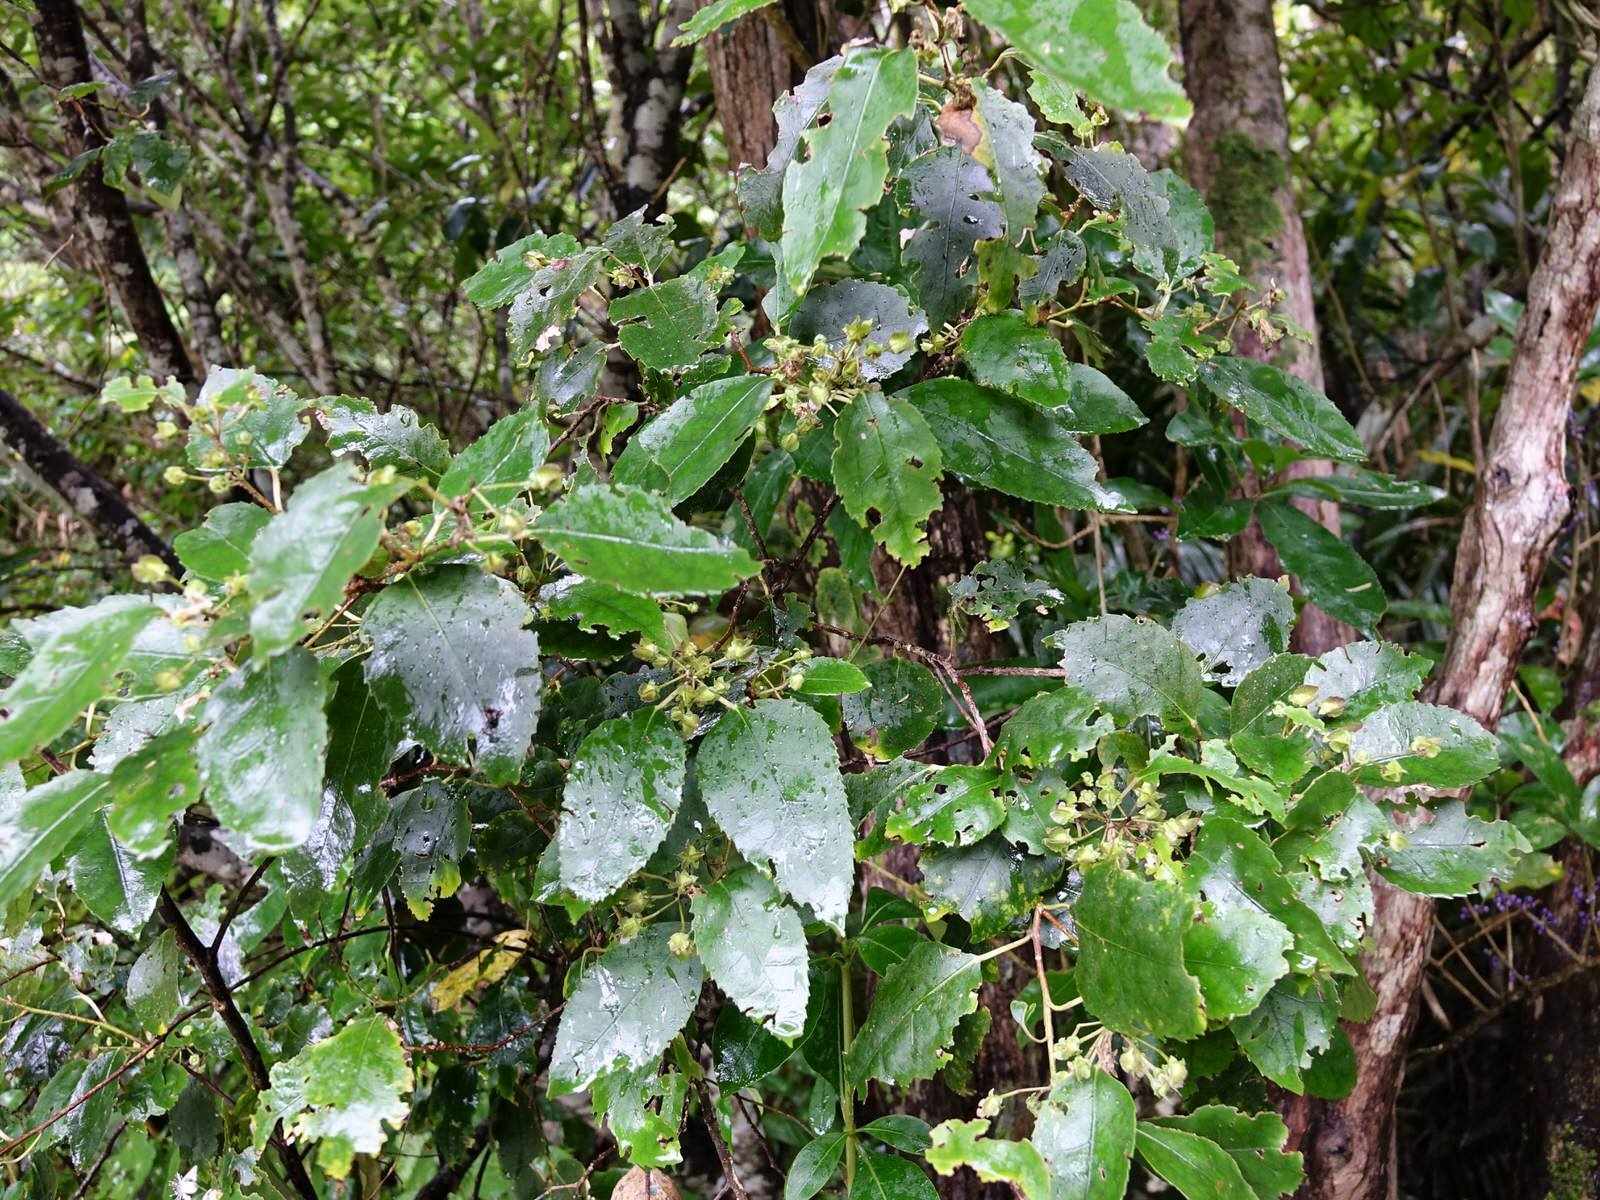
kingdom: Plantae
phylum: Tracheophyta
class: Magnoliopsida
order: Malvales
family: Malvaceae
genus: Hoheria
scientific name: Hoheria populnea
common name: Lacebark
